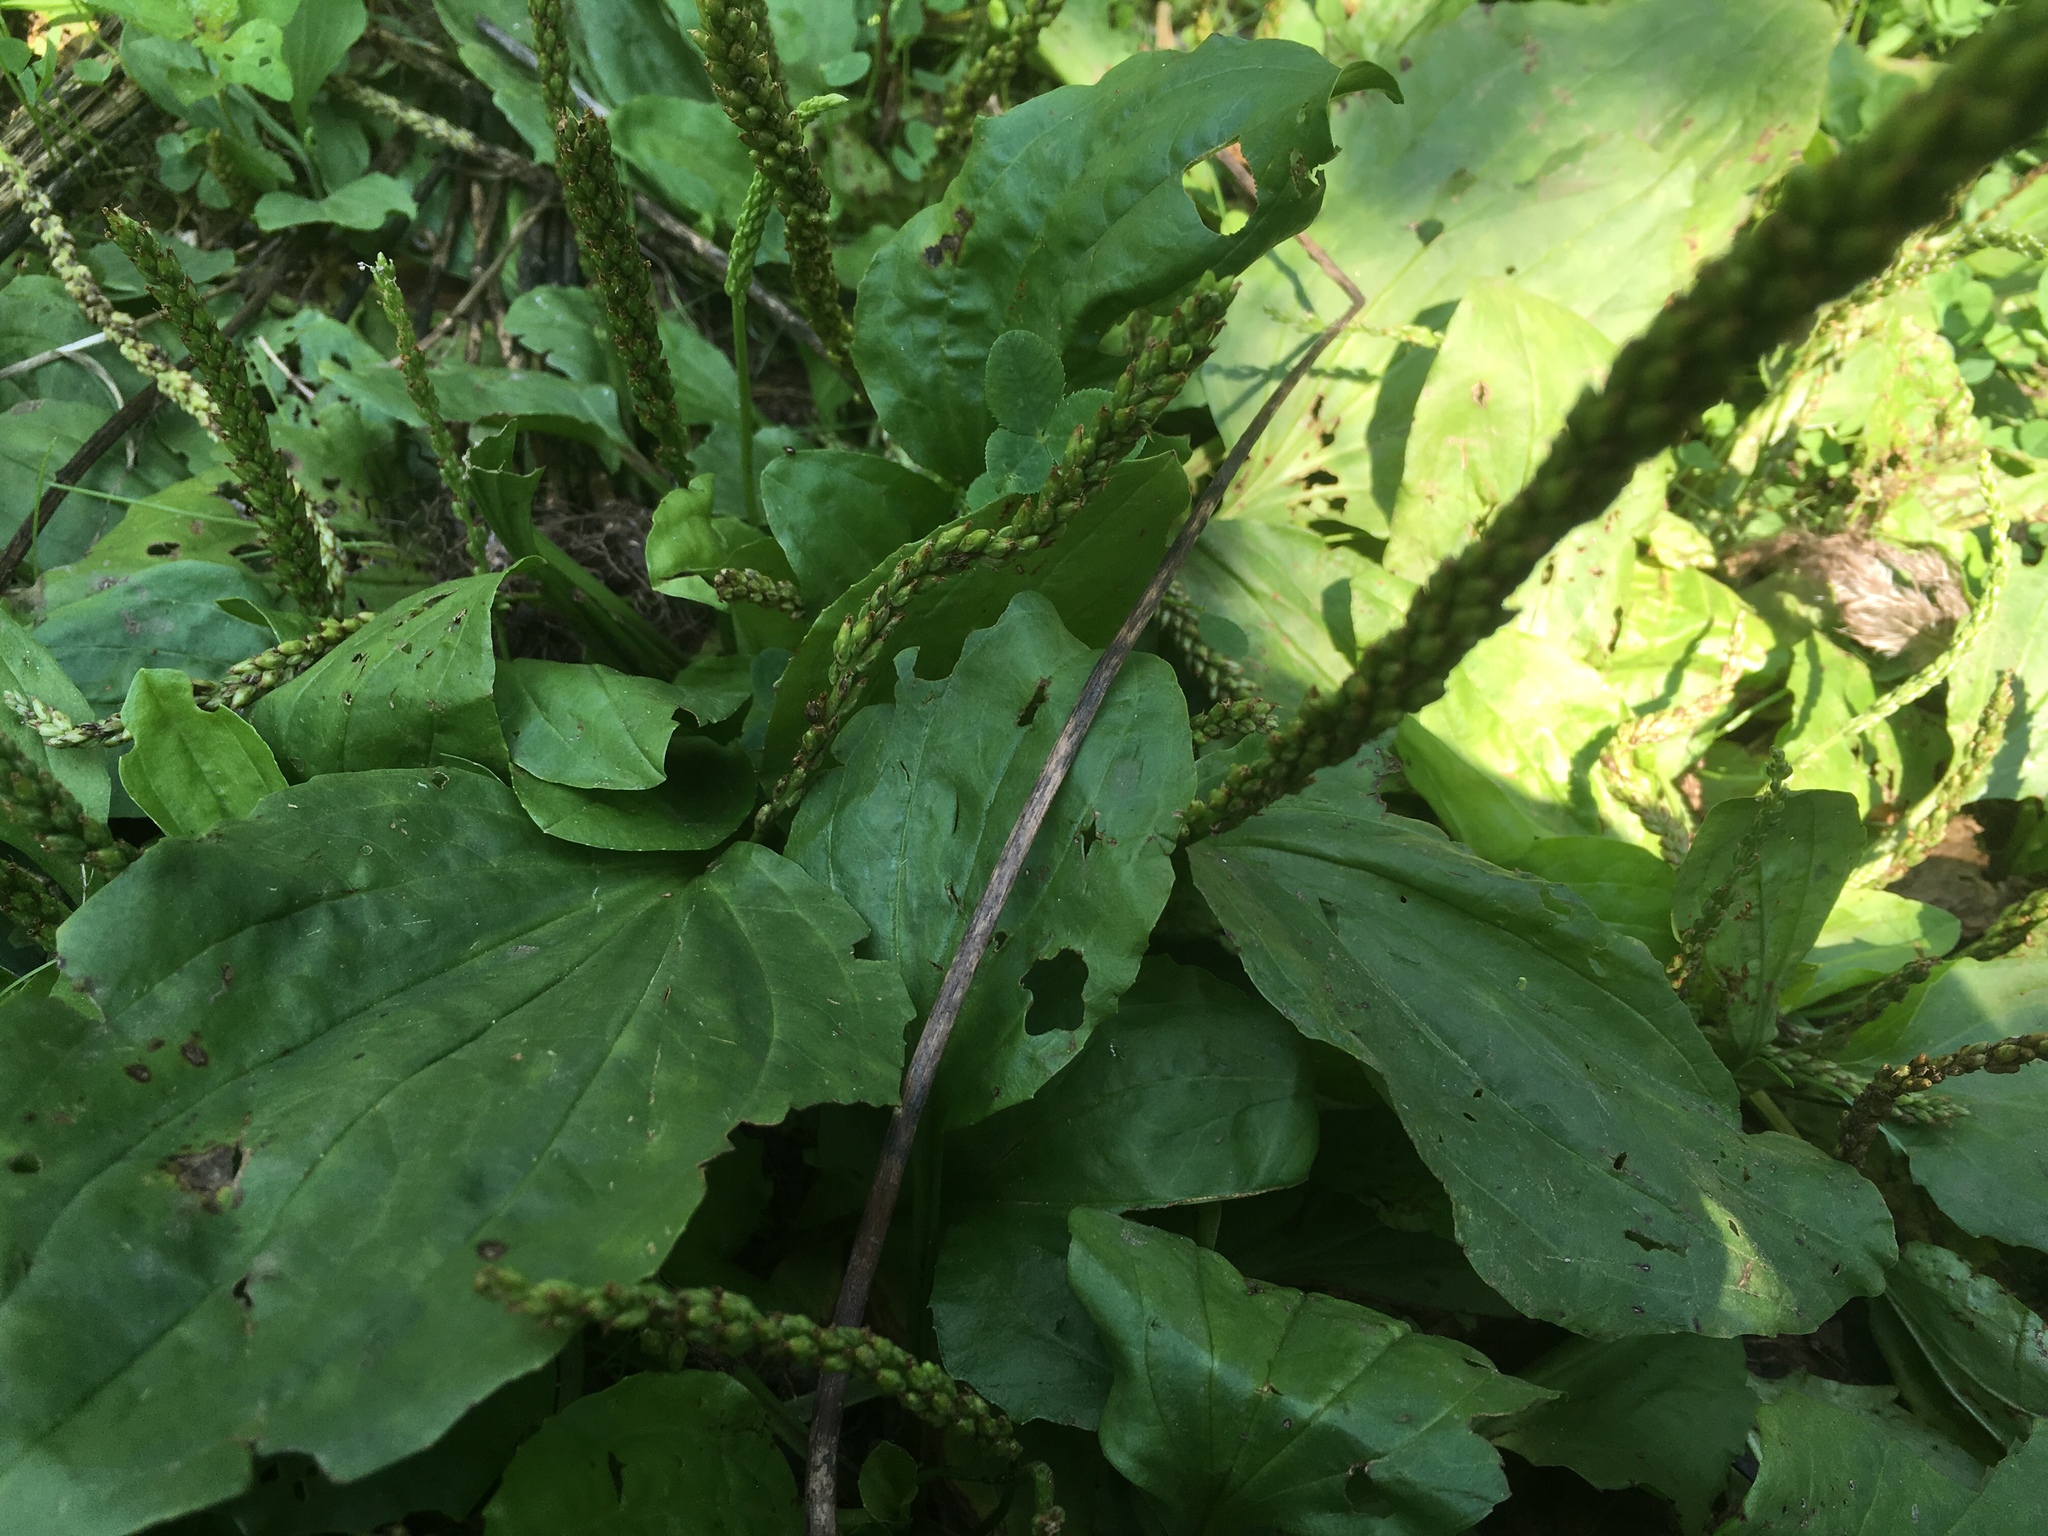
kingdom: Plantae
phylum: Tracheophyta
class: Magnoliopsida
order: Lamiales
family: Plantaginaceae
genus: Plantago
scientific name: Plantago major
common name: Common plantain
